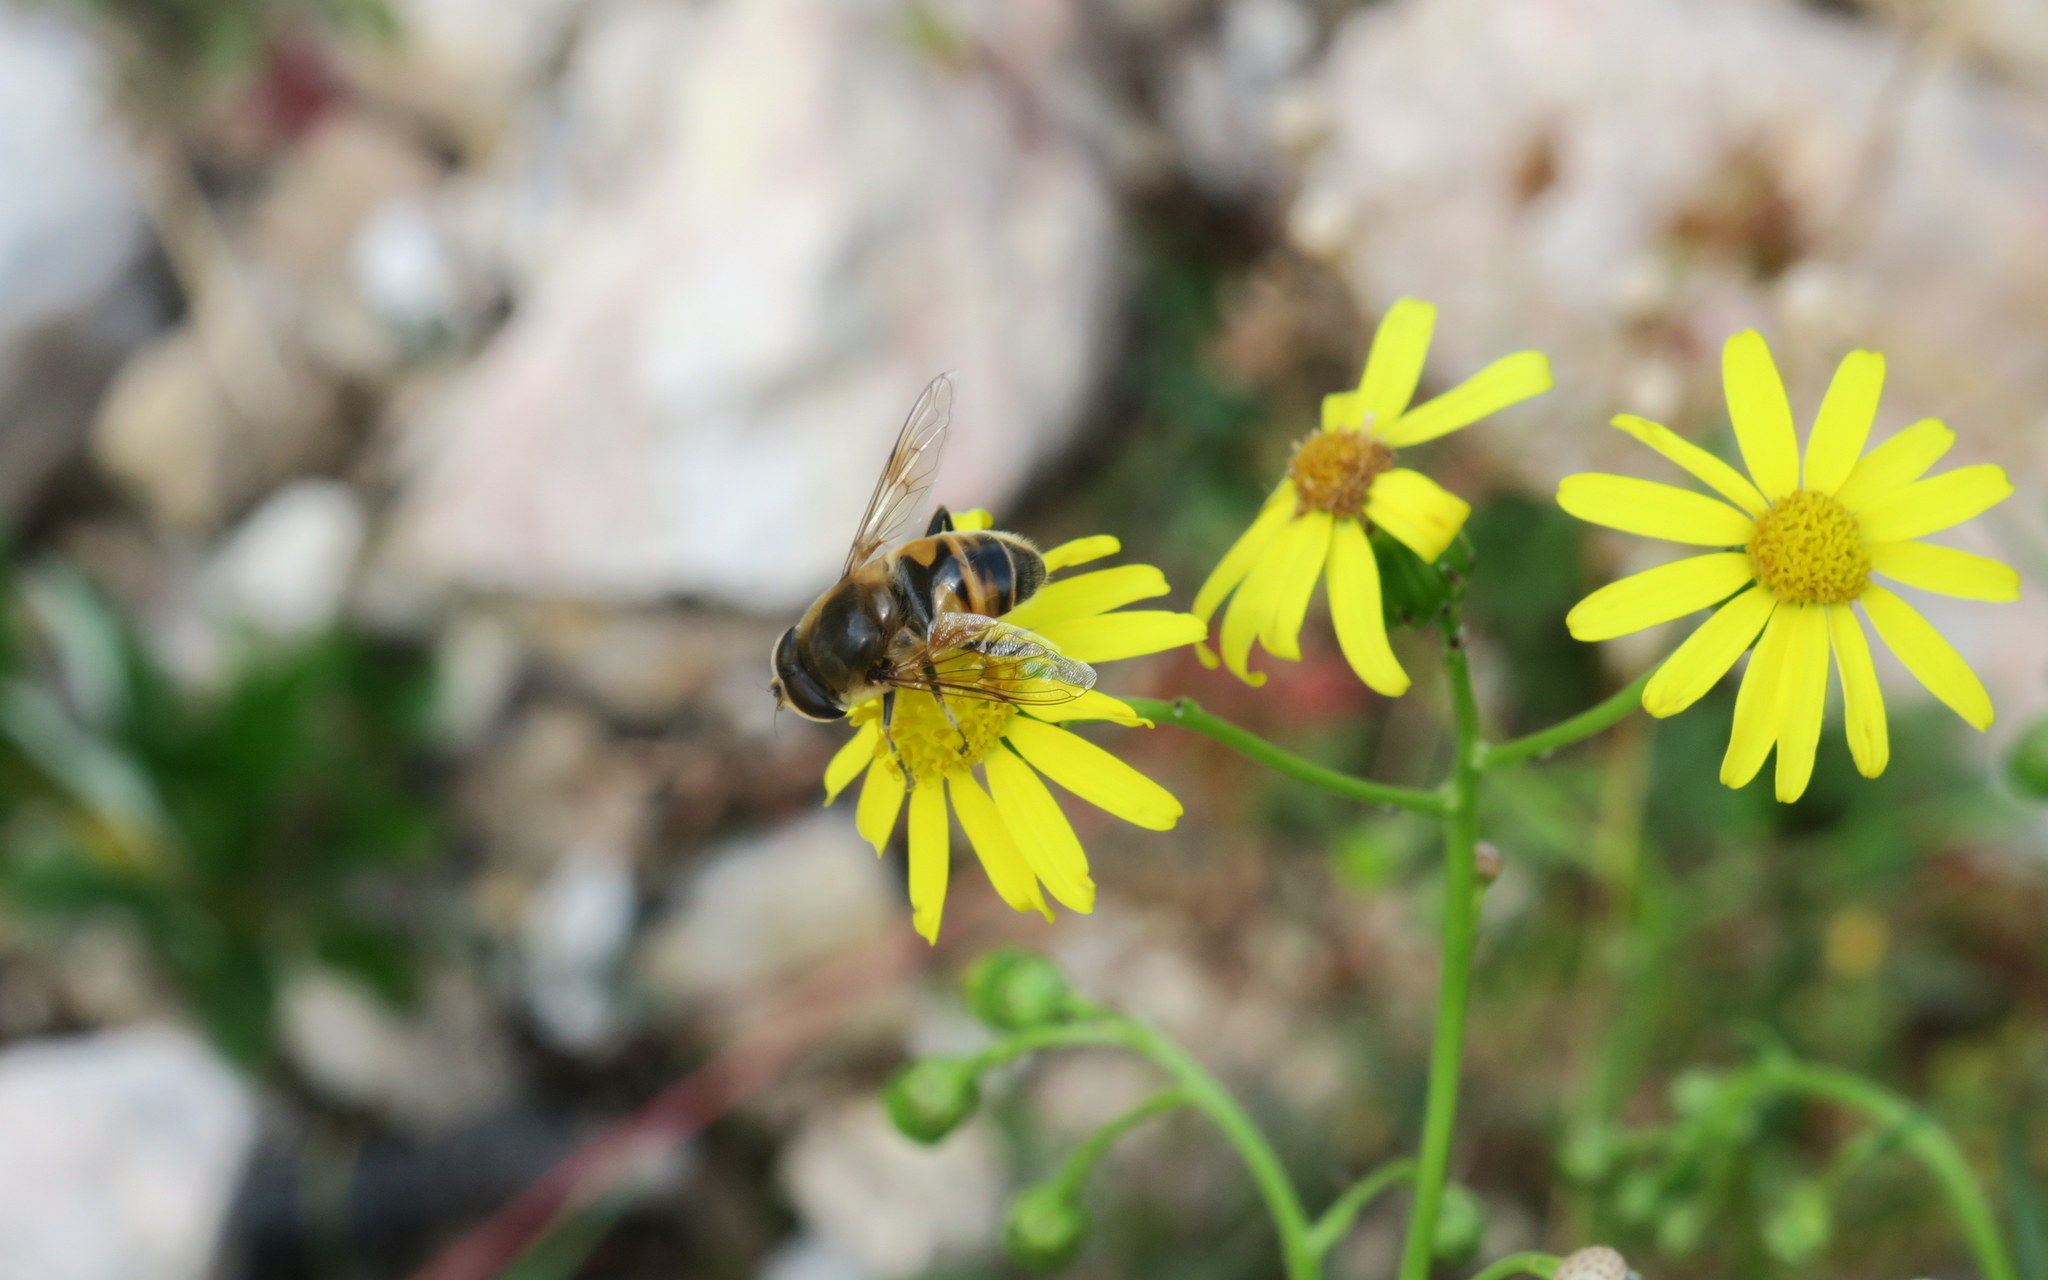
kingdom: Animalia
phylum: Arthropoda
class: Insecta
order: Diptera
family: Syrphidae
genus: Eristalis
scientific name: Eristalis tenax
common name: Drone fly
